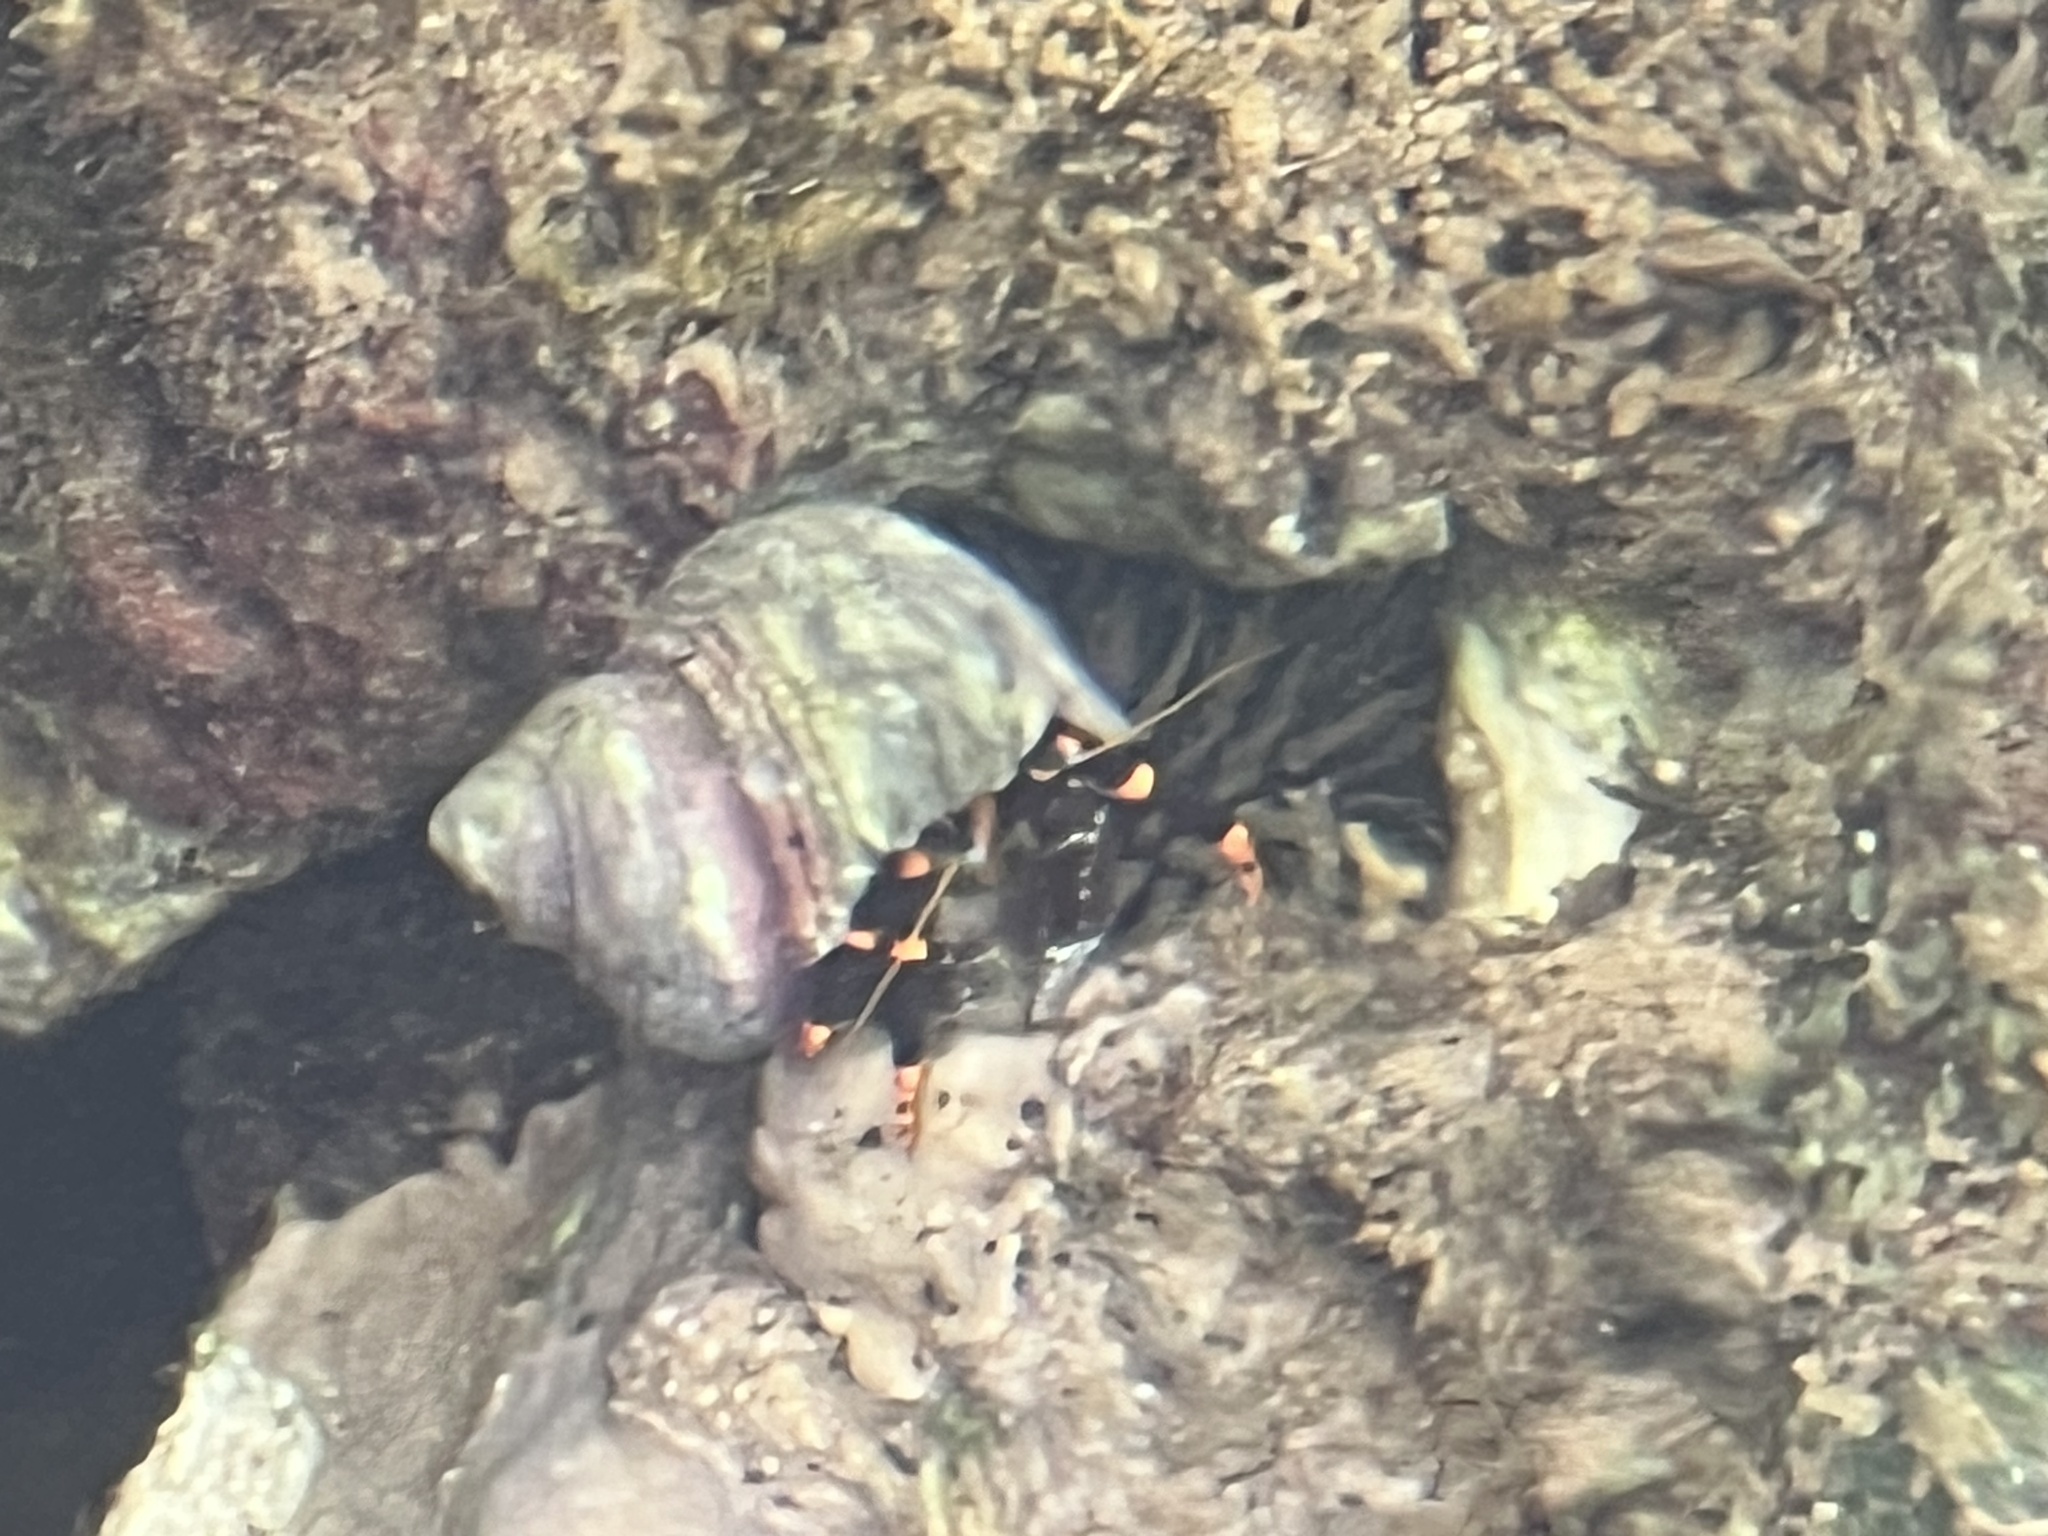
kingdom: Animalia
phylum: Arthropoda
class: Malacostraca
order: Decapoda
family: Diogenidae
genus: Calcinus
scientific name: Calcinus pictus
